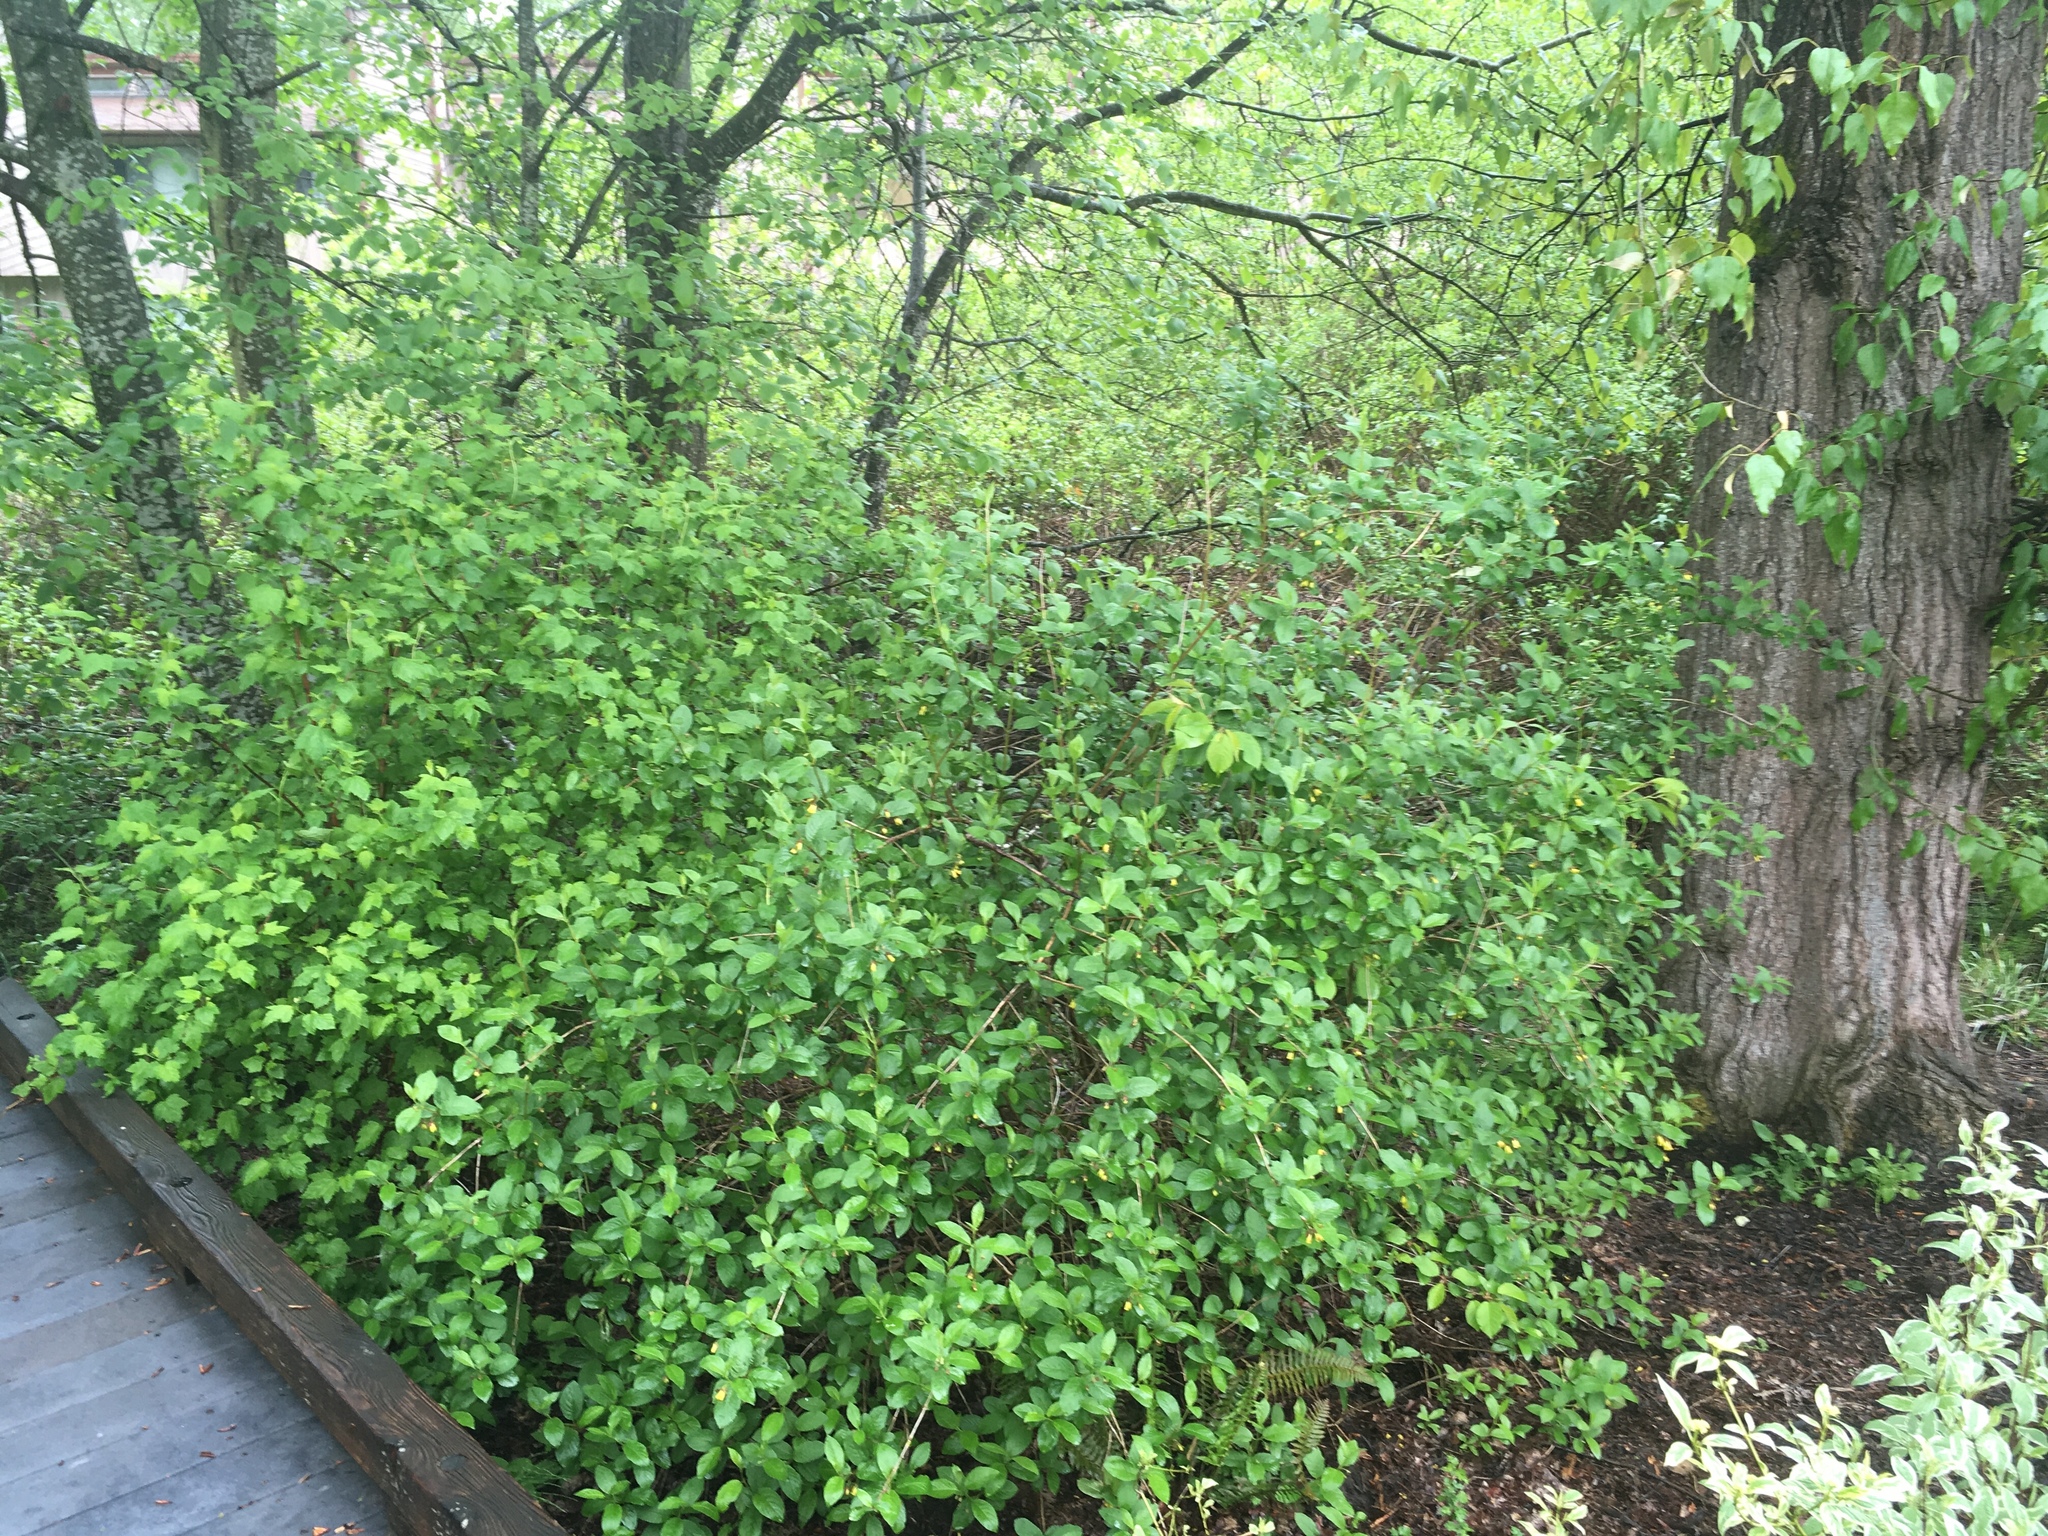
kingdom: Plantae
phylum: Tracheophyta
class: Magnoliopsida
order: Dipsacales
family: Caprifoliaceae
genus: Lonicera
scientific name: Lonicera involucrata
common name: Californian honeysuckle
